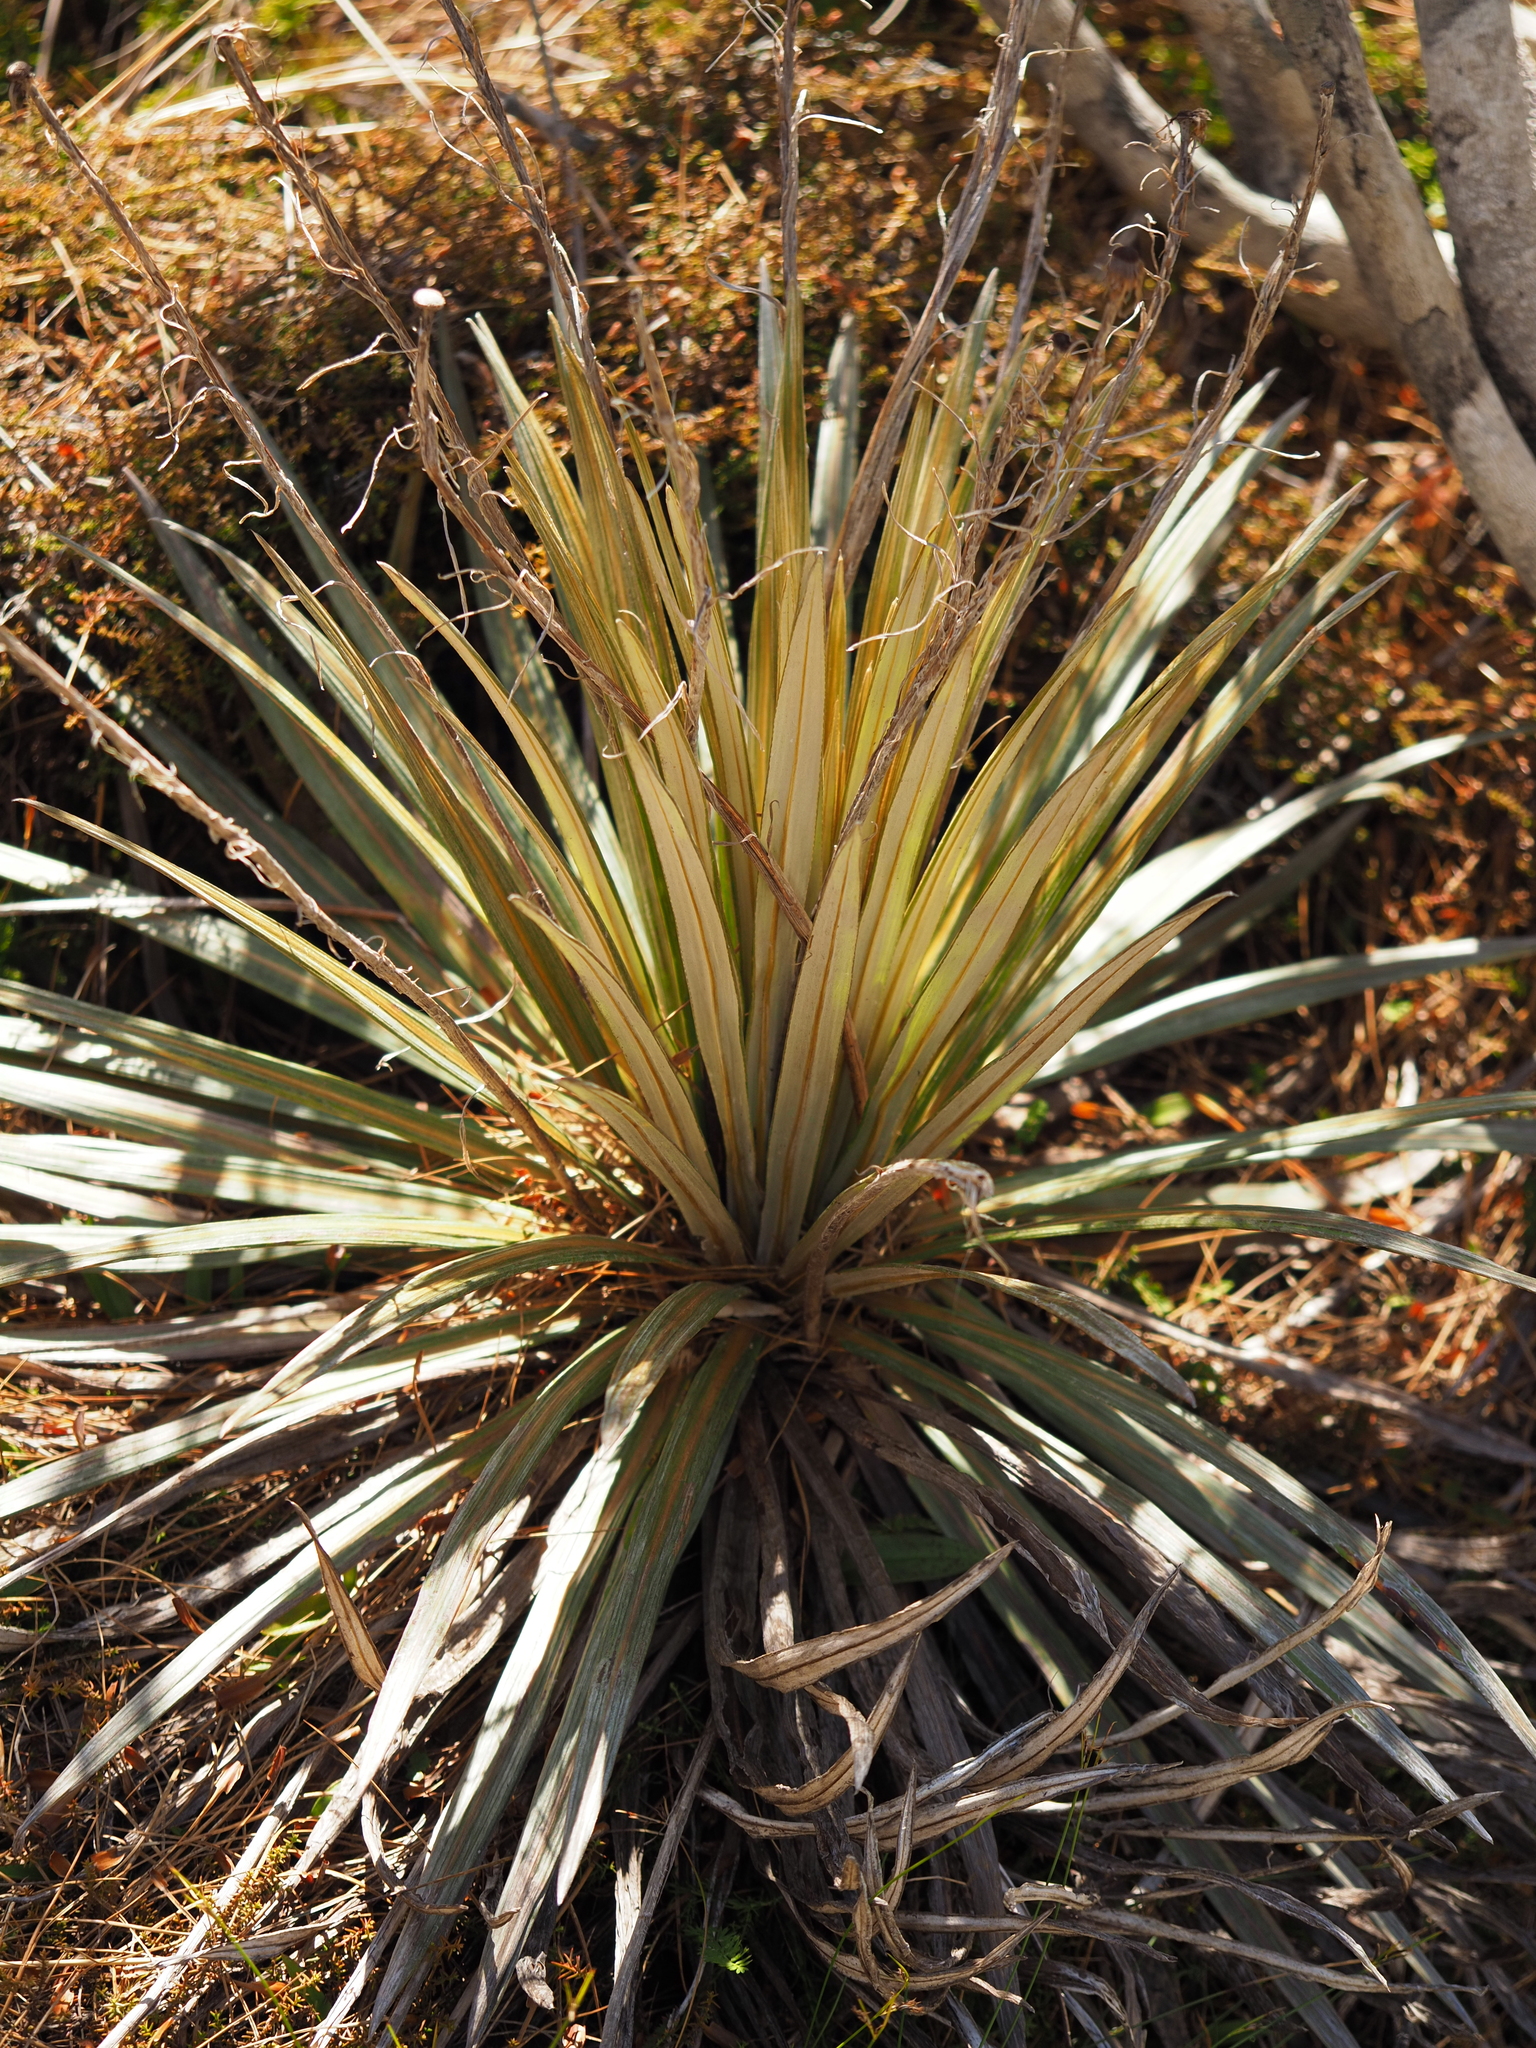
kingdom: Plantae
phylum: Tracheophyta
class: Magnoliopsida
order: Asterales
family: Asteraceae
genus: Celmisia
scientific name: Celmisia armstrongii
